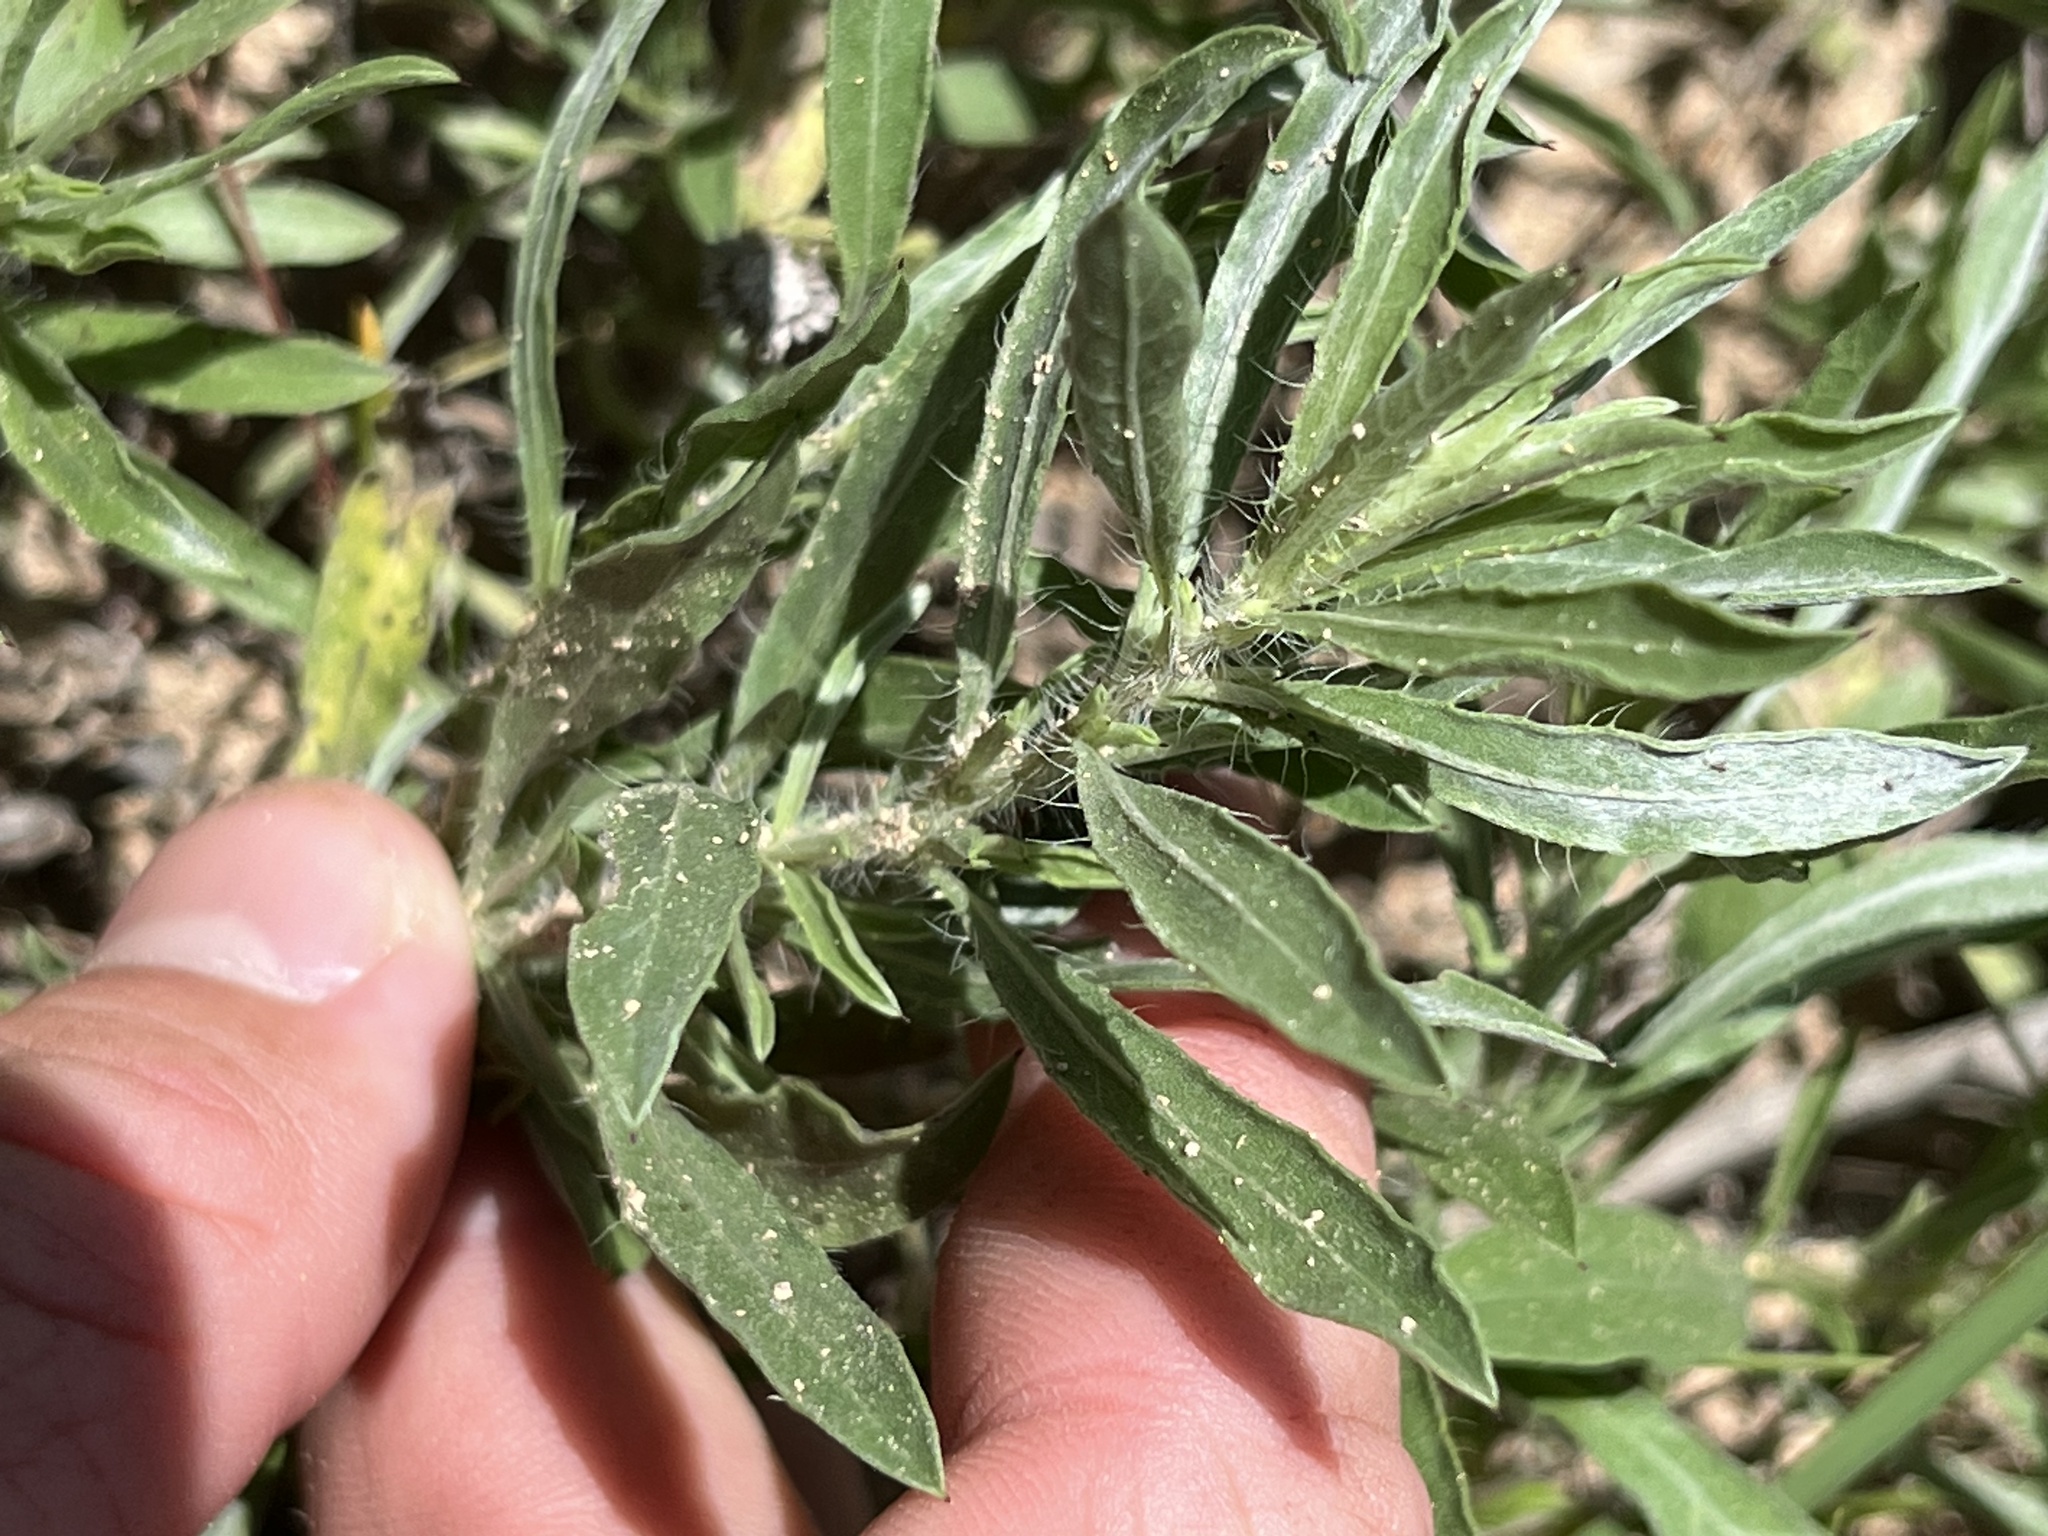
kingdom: Plantae
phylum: Tracheophyta
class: Magnoliopsida
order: Asterales
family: Asteraceae
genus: Heterotheca
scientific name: Heterotheca canescens
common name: Hoary golden-aster
